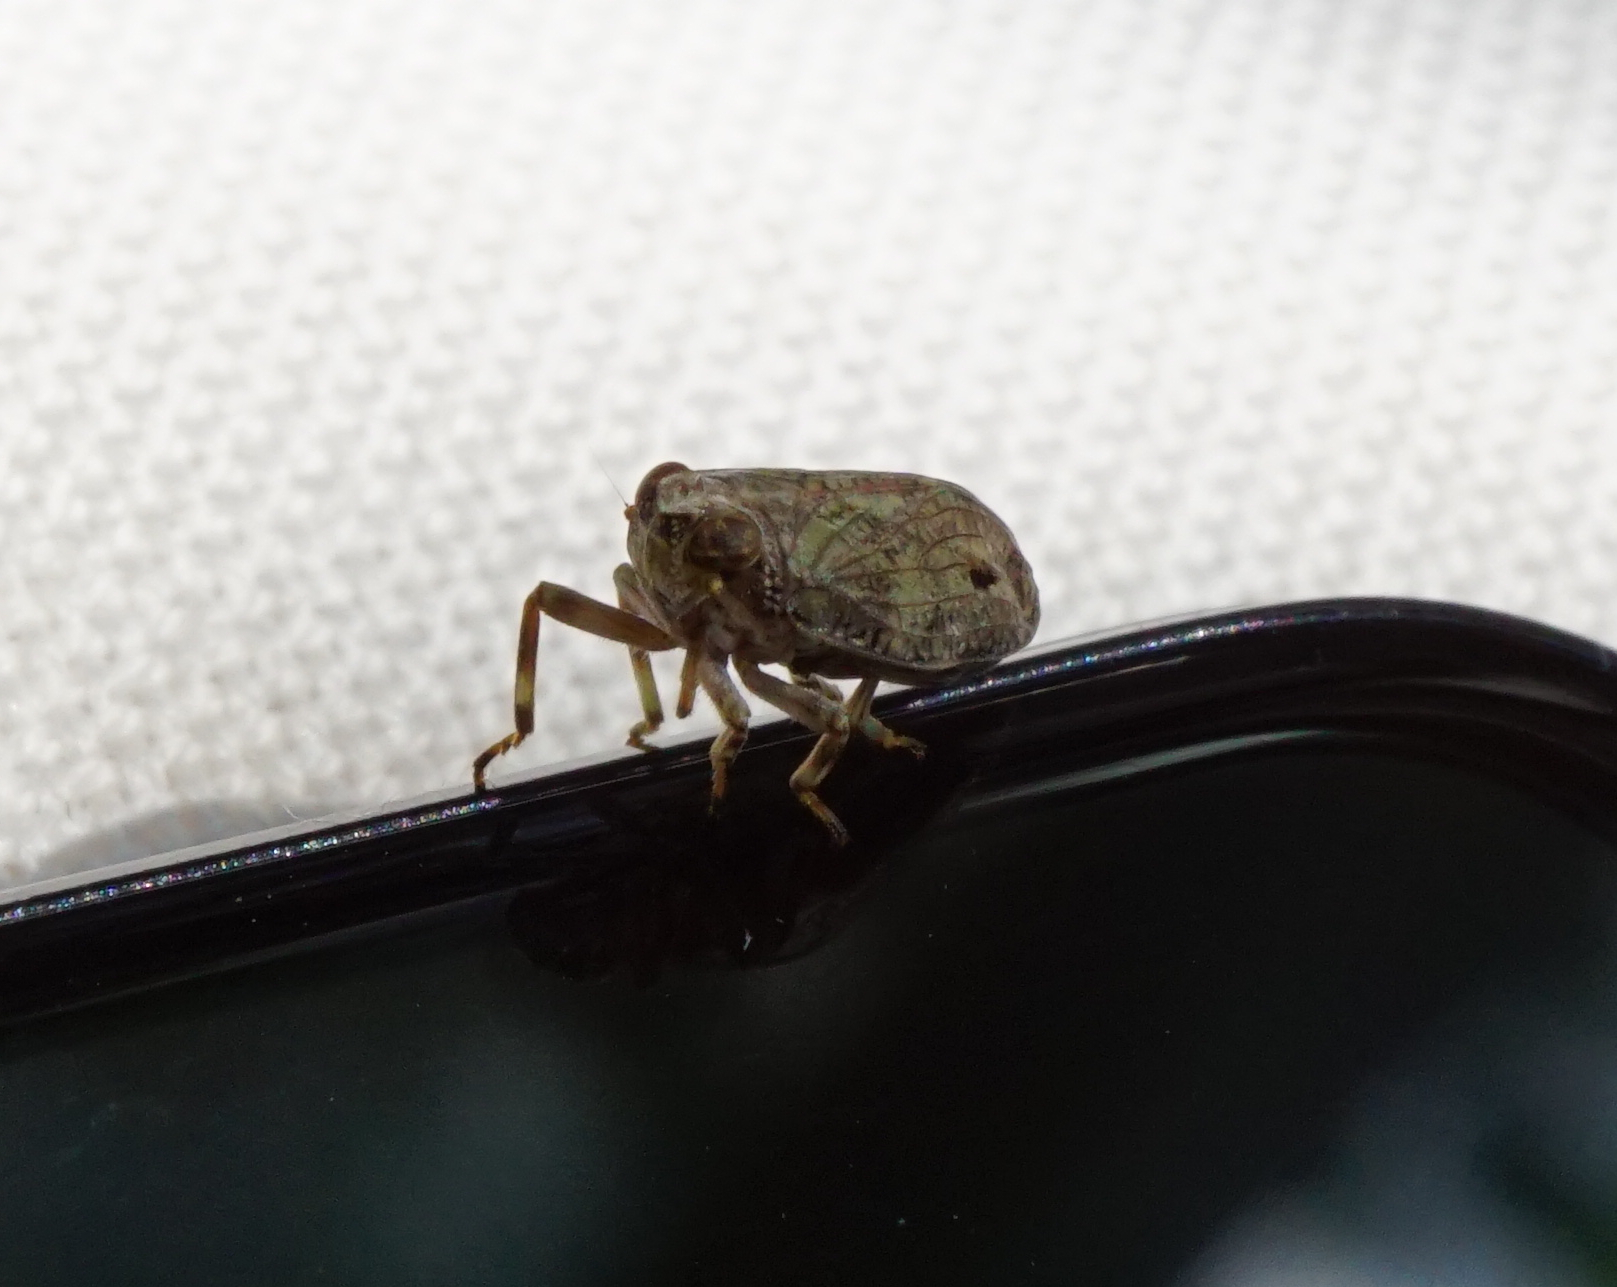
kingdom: Animalia
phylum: Arthropoda
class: Insecta
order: Hemiptera
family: Issidae
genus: Issus
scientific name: Issus coleoptratus
